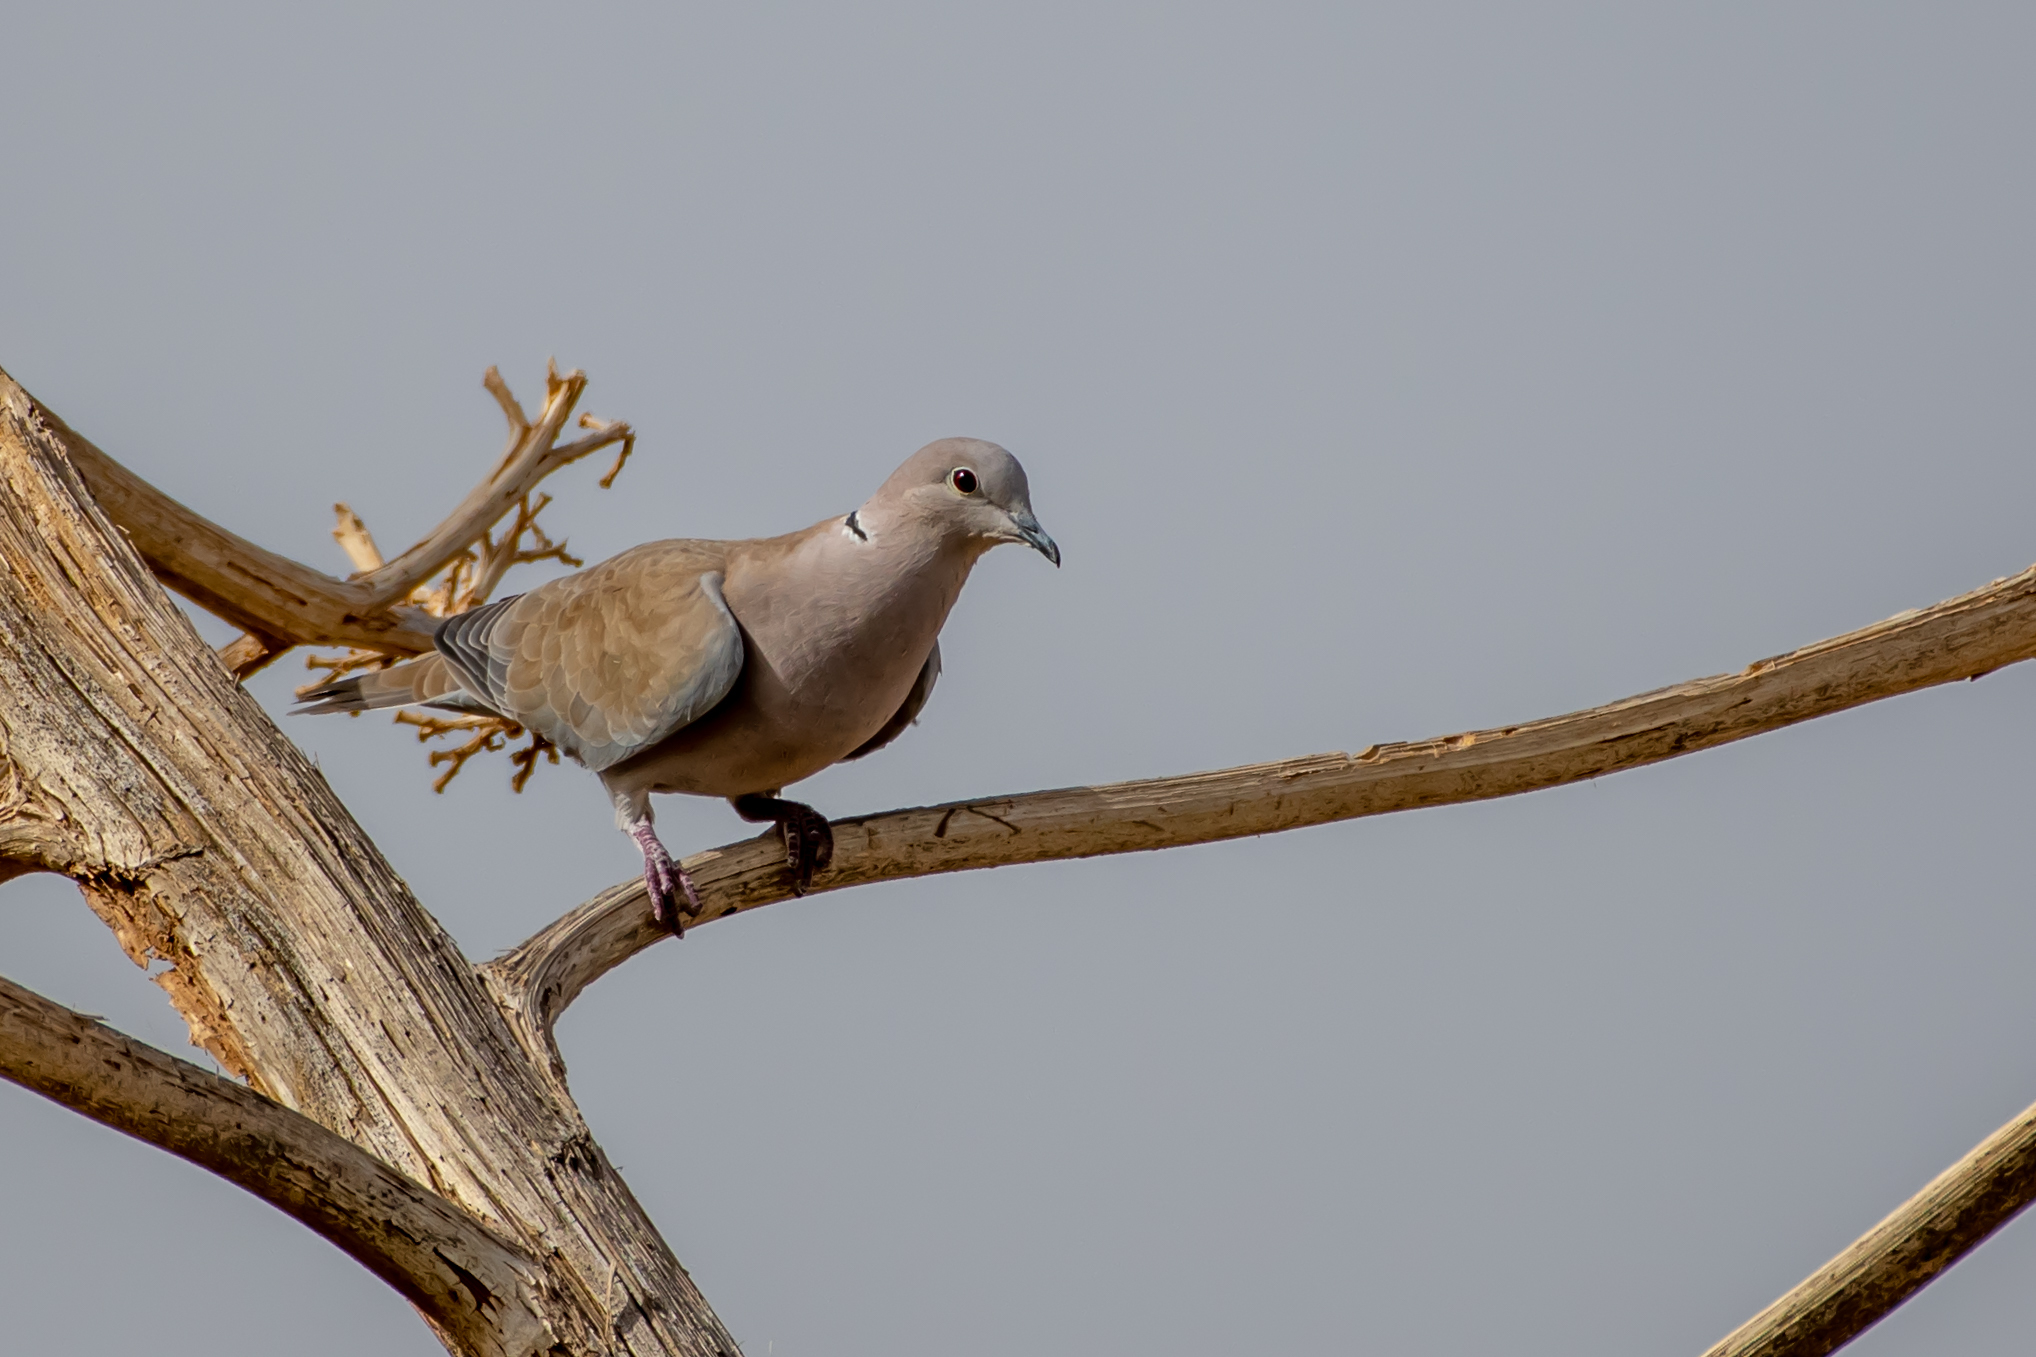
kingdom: Animalia
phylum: Chordata
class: Aves
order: Columbiformes
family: Columbidae
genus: Streptopelia
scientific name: Streptopelia decaocto
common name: Eurasian collared dove
